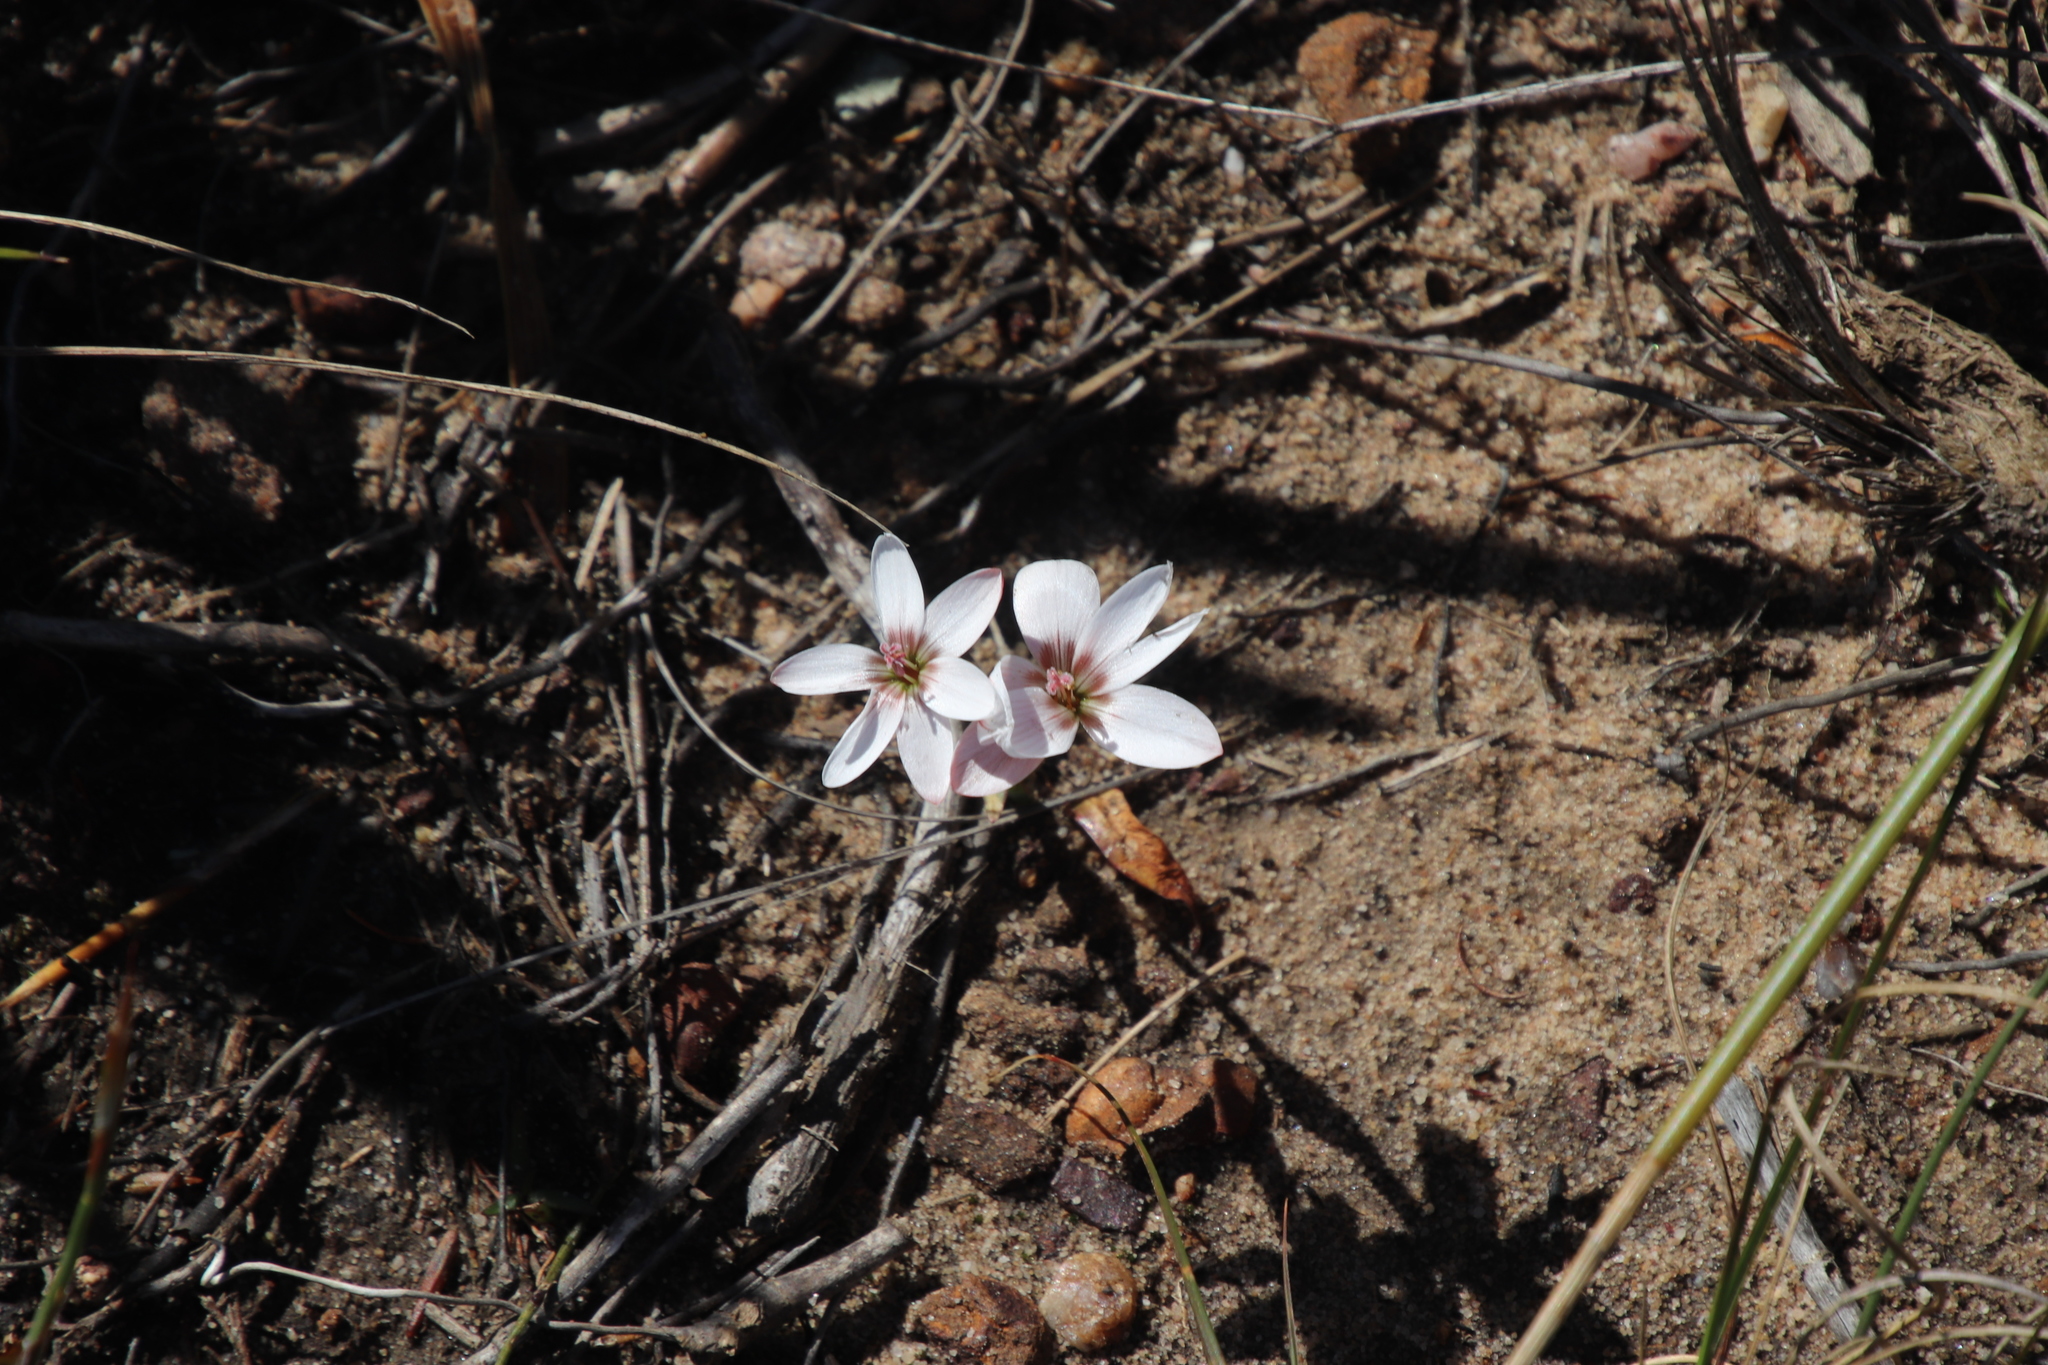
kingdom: Plantae
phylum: Tracheophyta
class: Liliopsida
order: Asparagales
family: Iridaceae
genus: Geissorhiza
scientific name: Geissorhiza ovata
